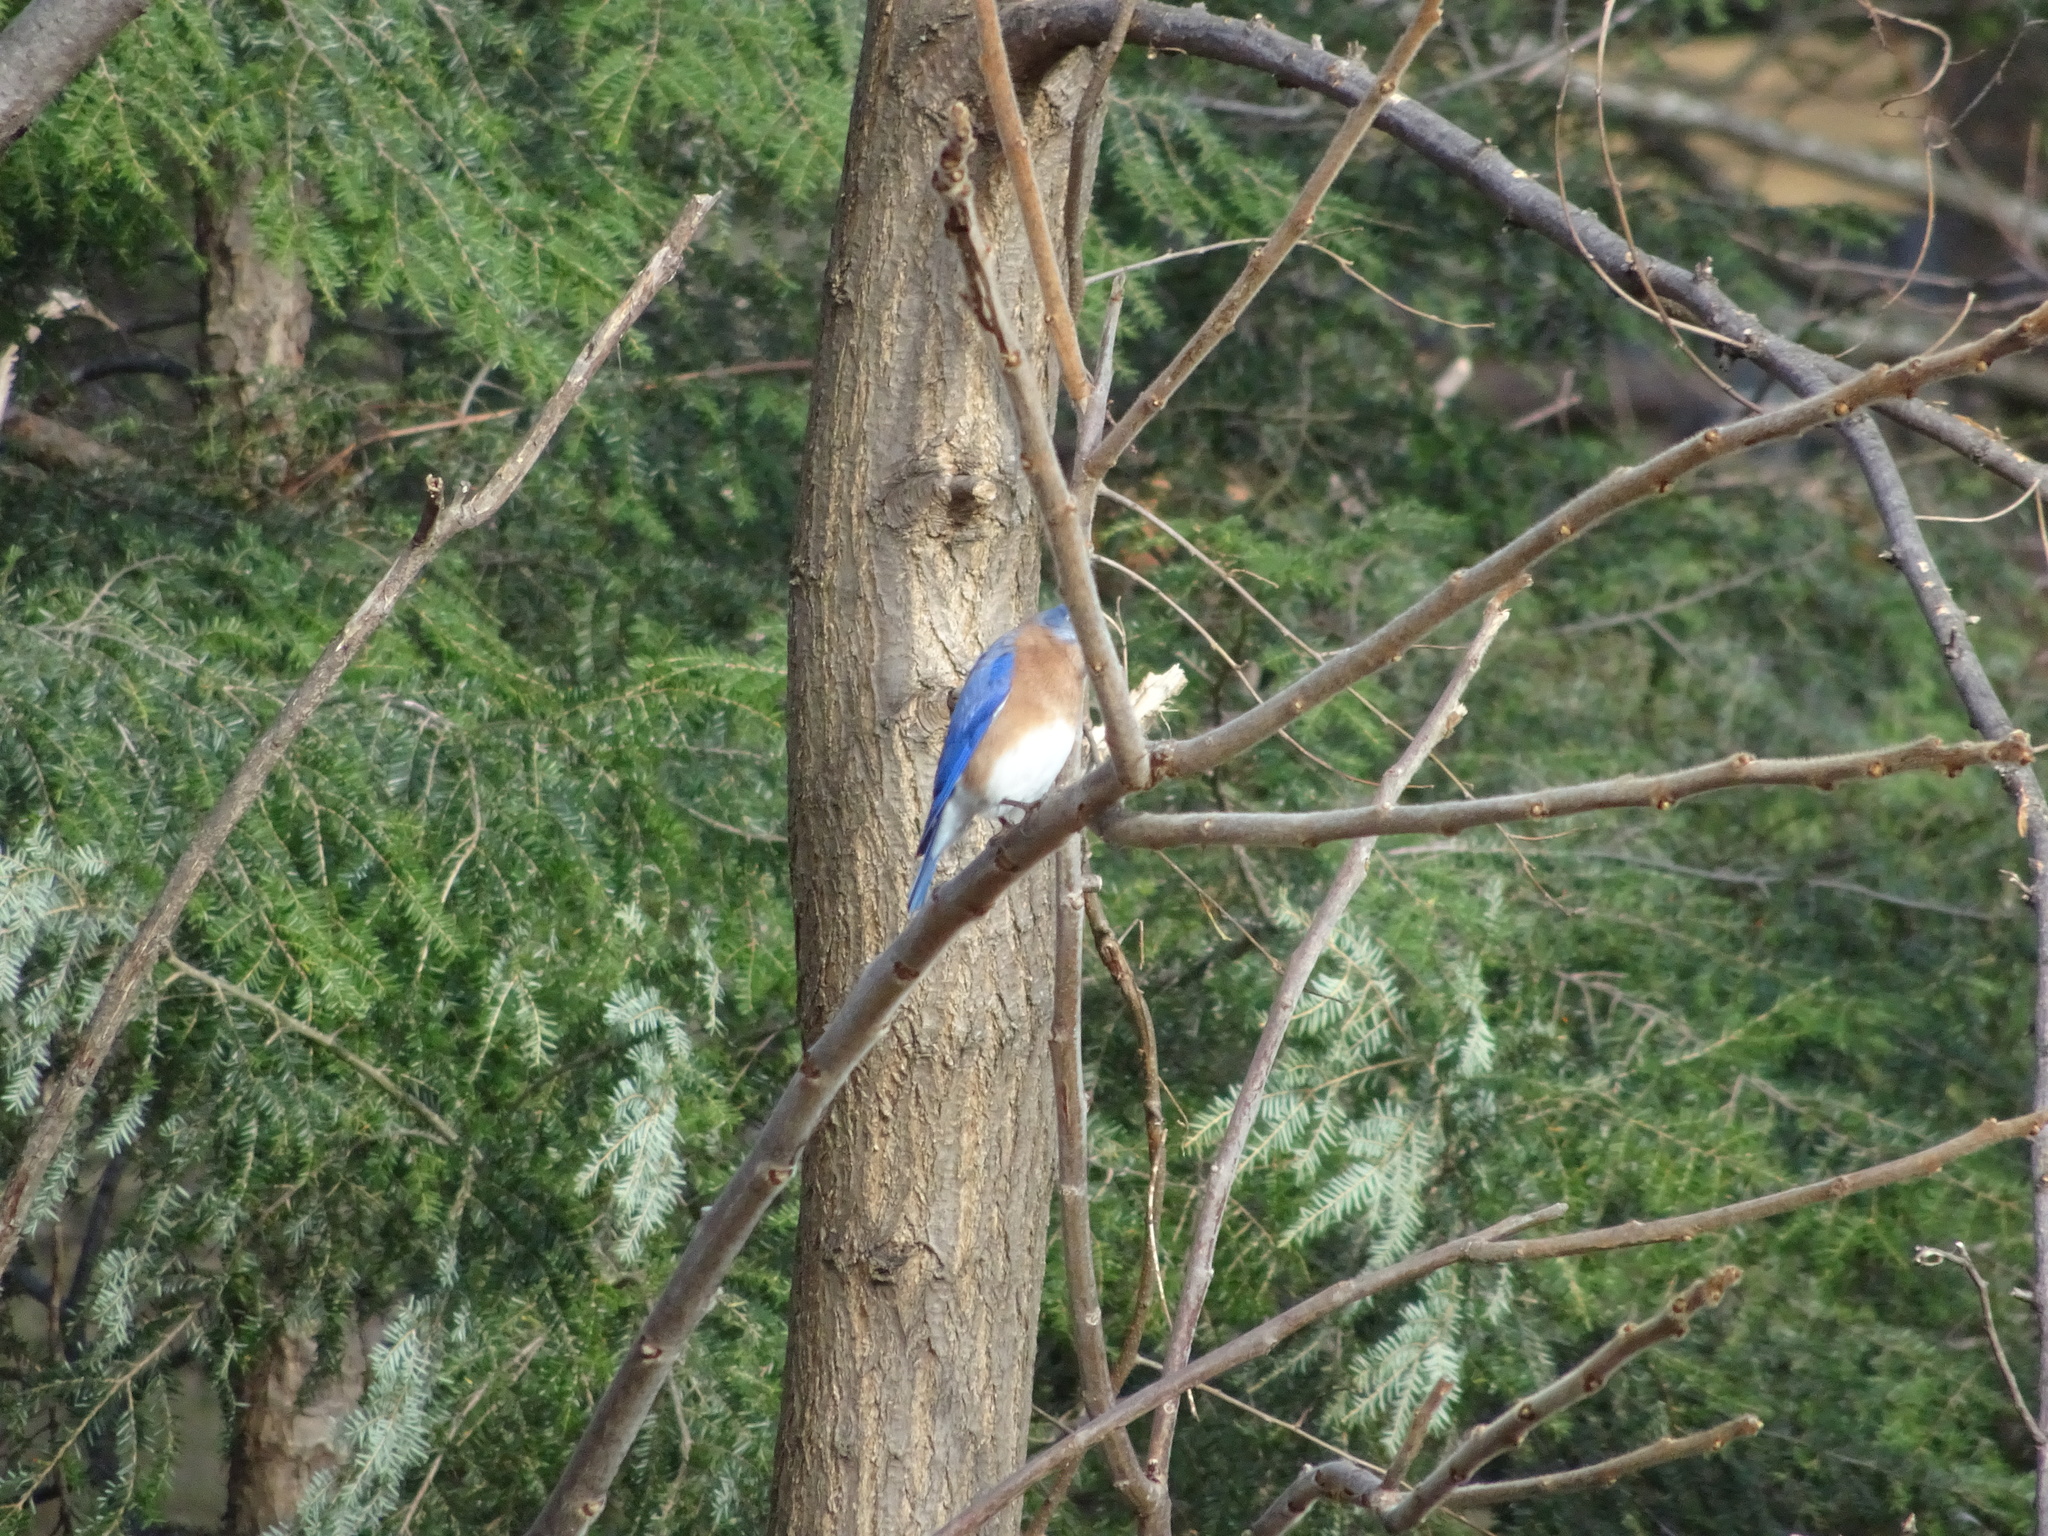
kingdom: Animalia
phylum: Chordata
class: Aves
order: Passeriformes
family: Turdidae
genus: Sialia
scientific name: Sialia sialis
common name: Eastern bluebird
